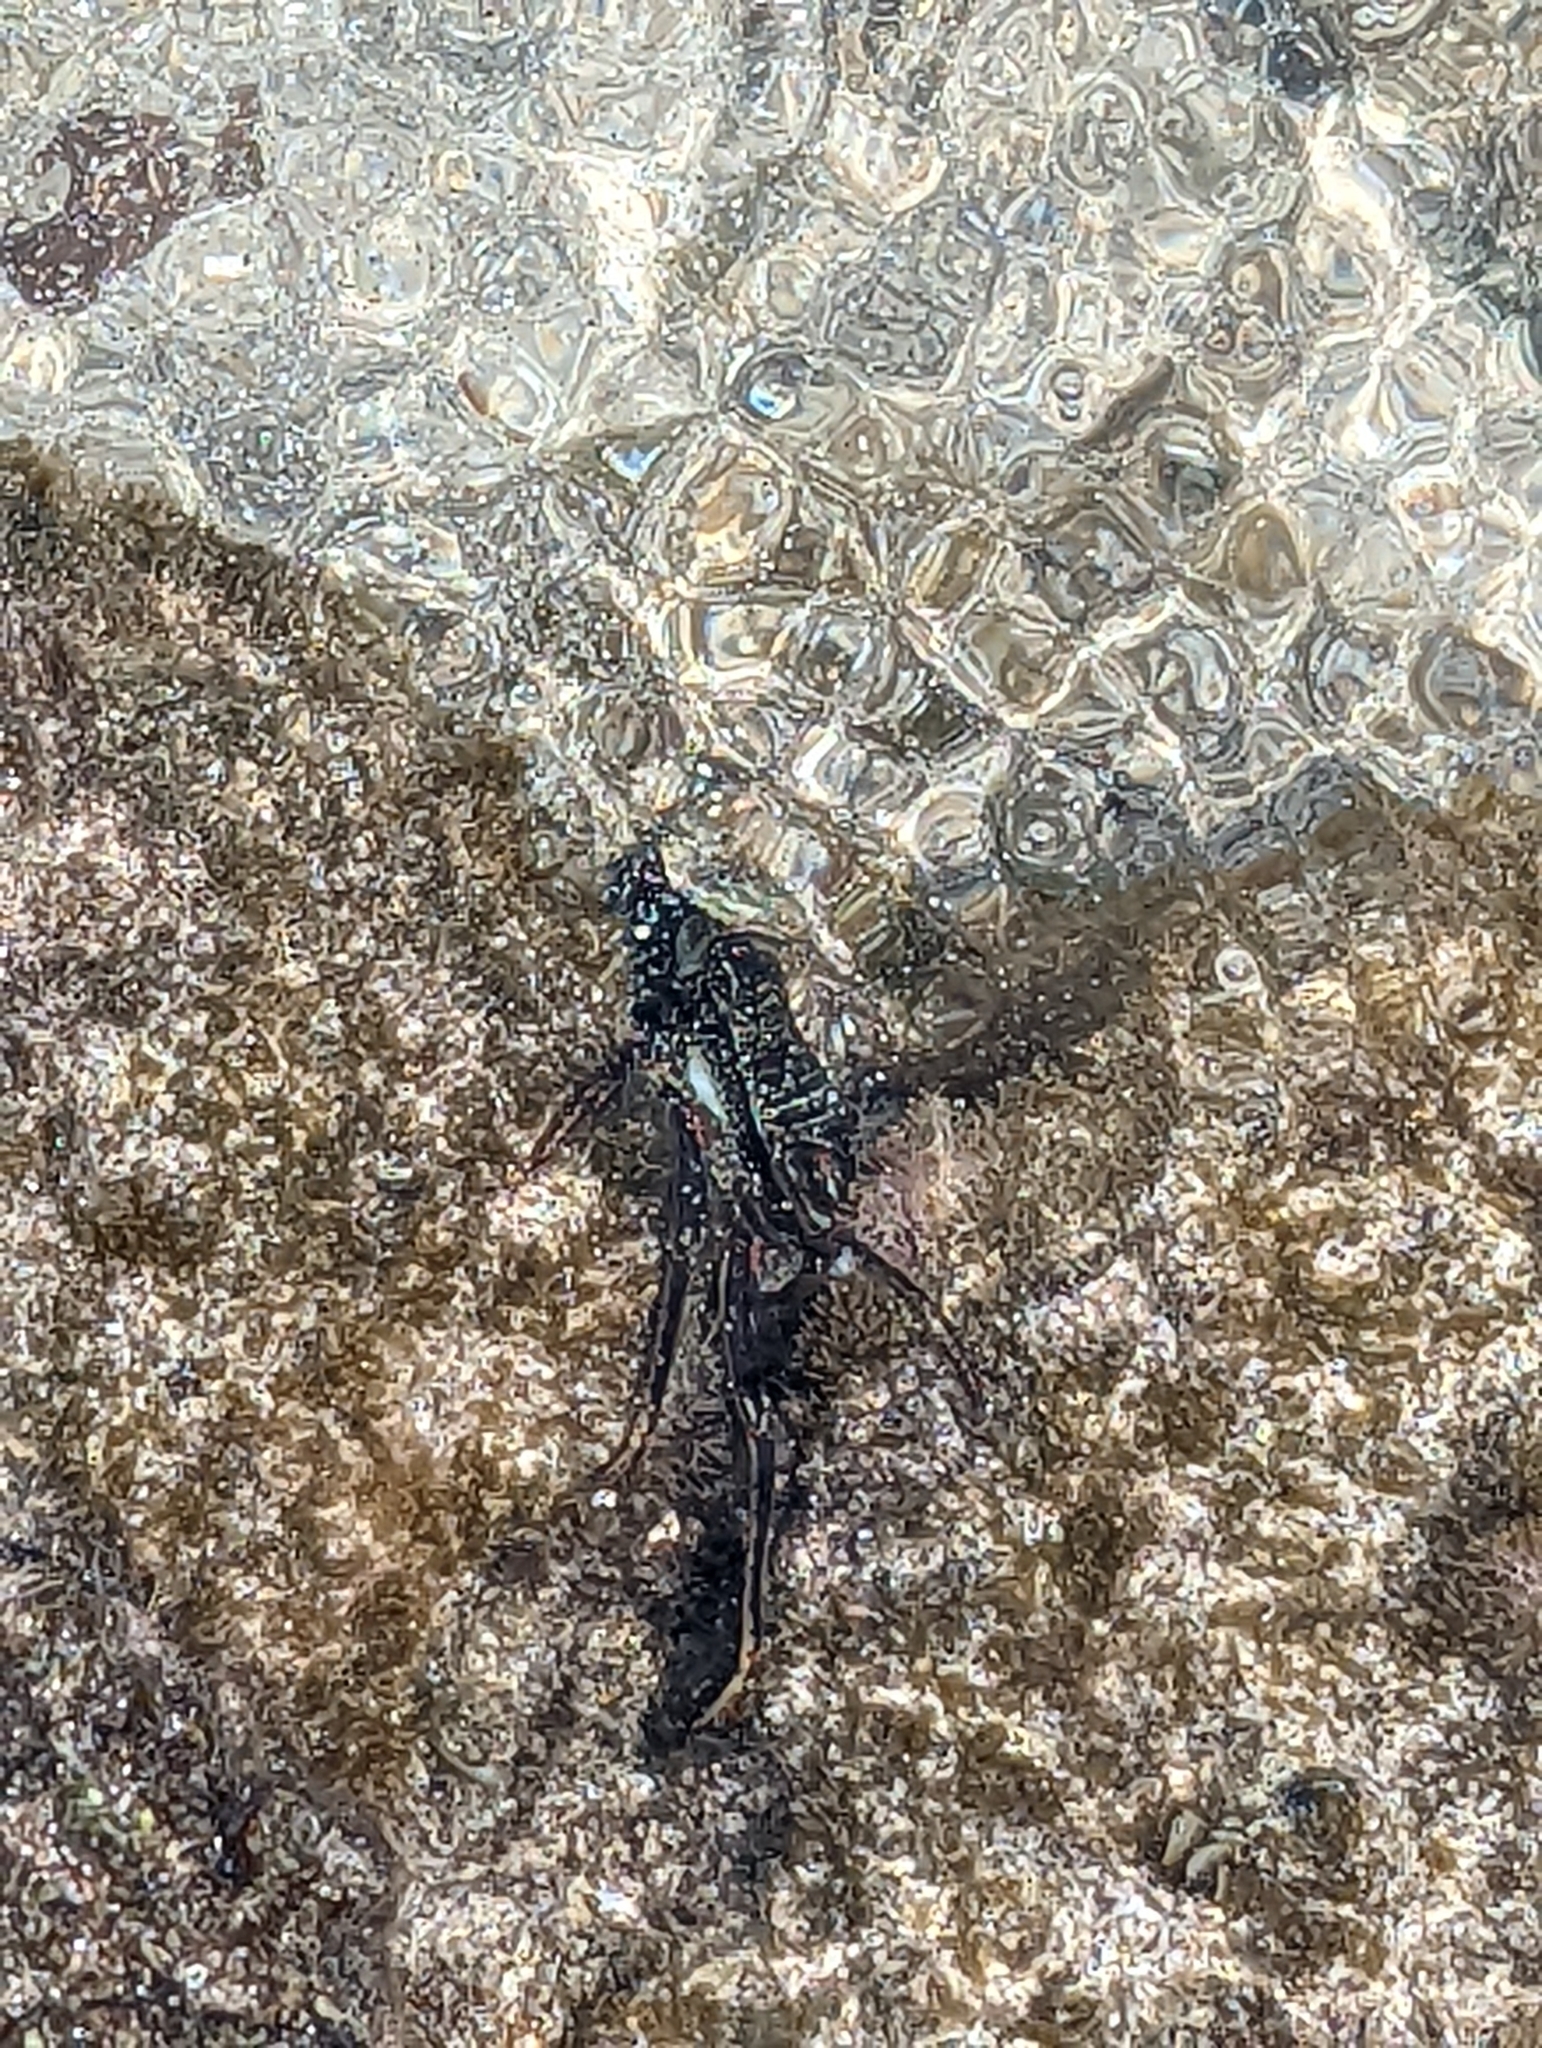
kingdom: Animalia
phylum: Arthropoda
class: Malacostraca
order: Decapoda
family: Grapsidae
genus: Grapsus
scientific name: Grapsus tenuicrustatus
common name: Natal lightfoot crab
